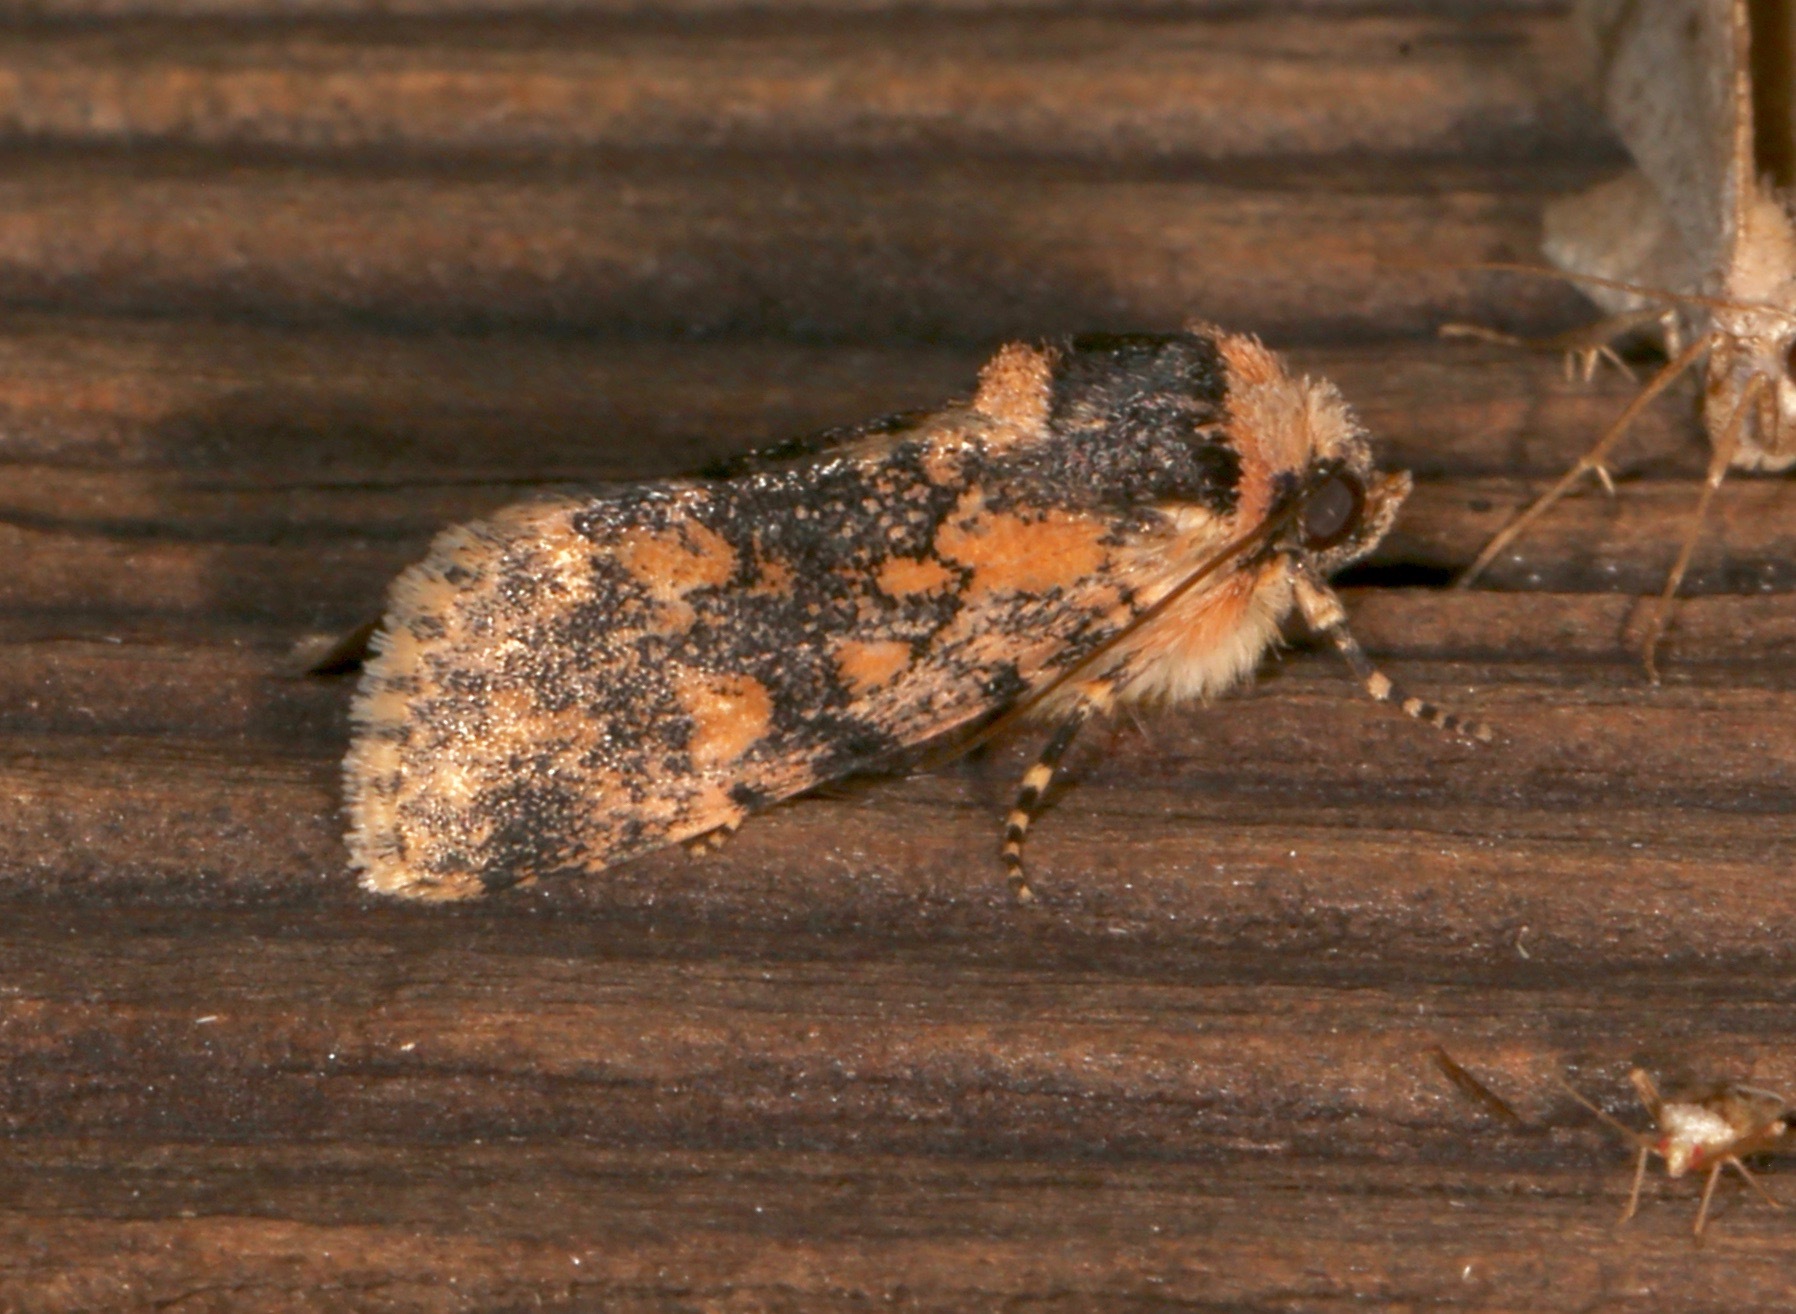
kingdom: Animalia
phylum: Arthropoda
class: Insecta
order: Lepidoptera
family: Noctuidae
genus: Sympistis
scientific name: Sympistis singularis
